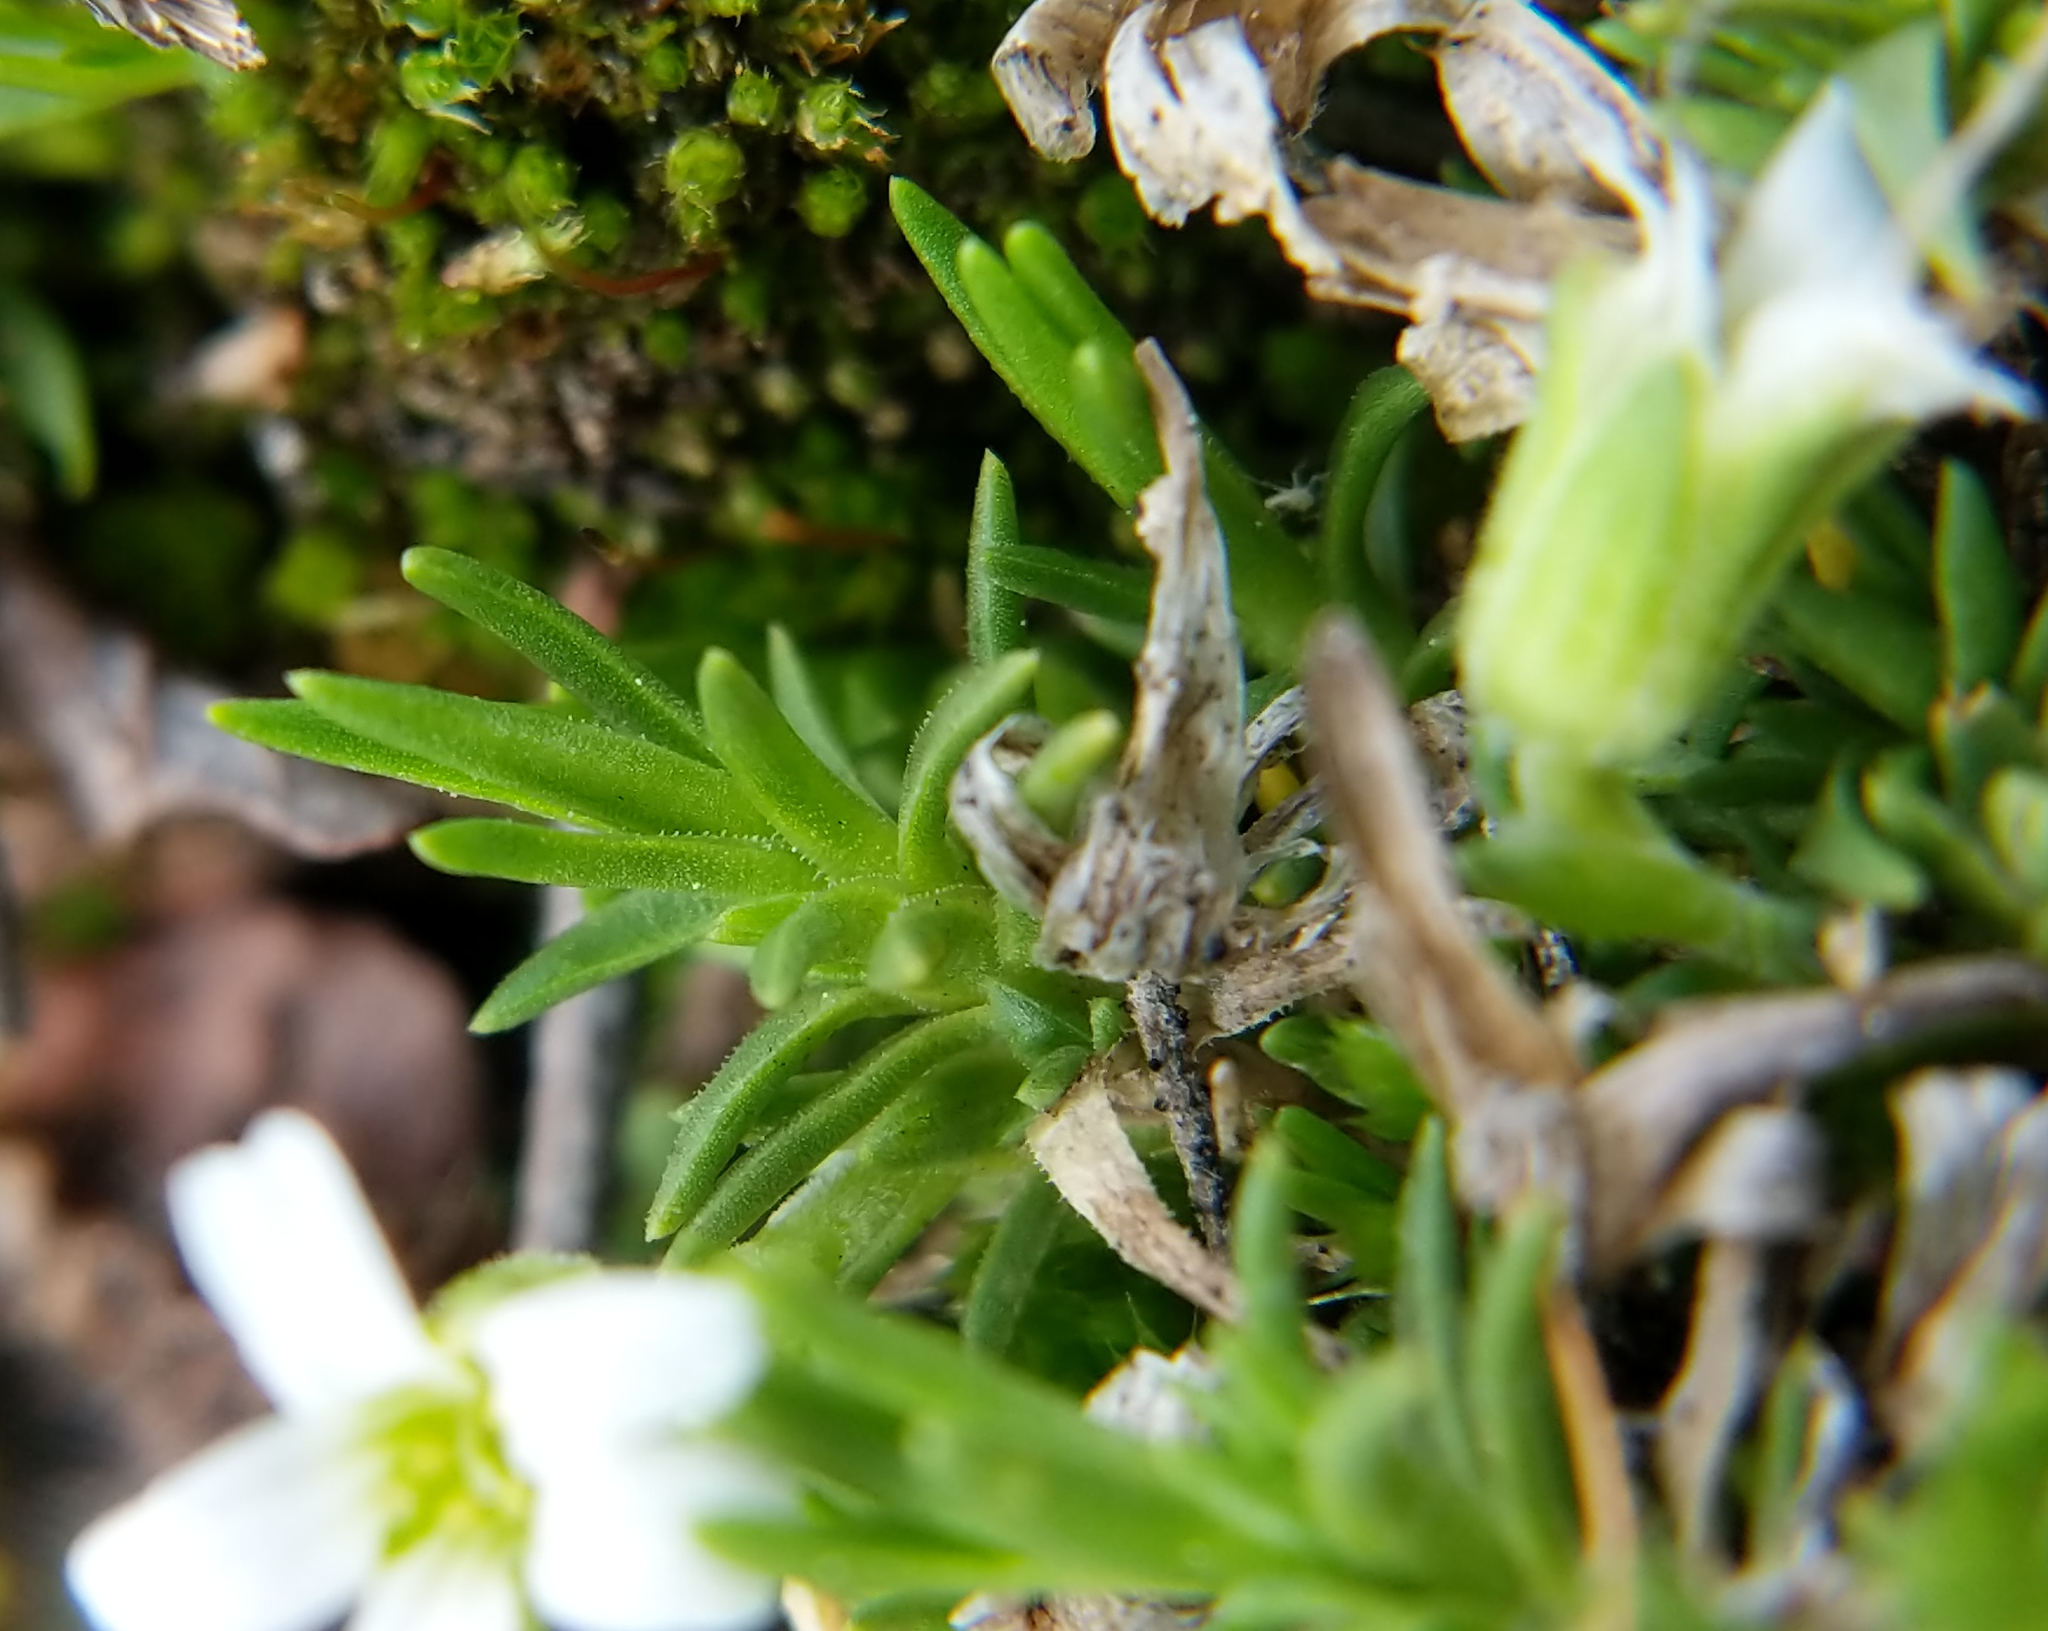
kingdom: Plantae
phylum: Tracheophyta
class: Magnoliopsida
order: Caryophyllales
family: Caryophyllaceae
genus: Cherleria
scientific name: Cherleria biflora
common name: Mountain sandwort
